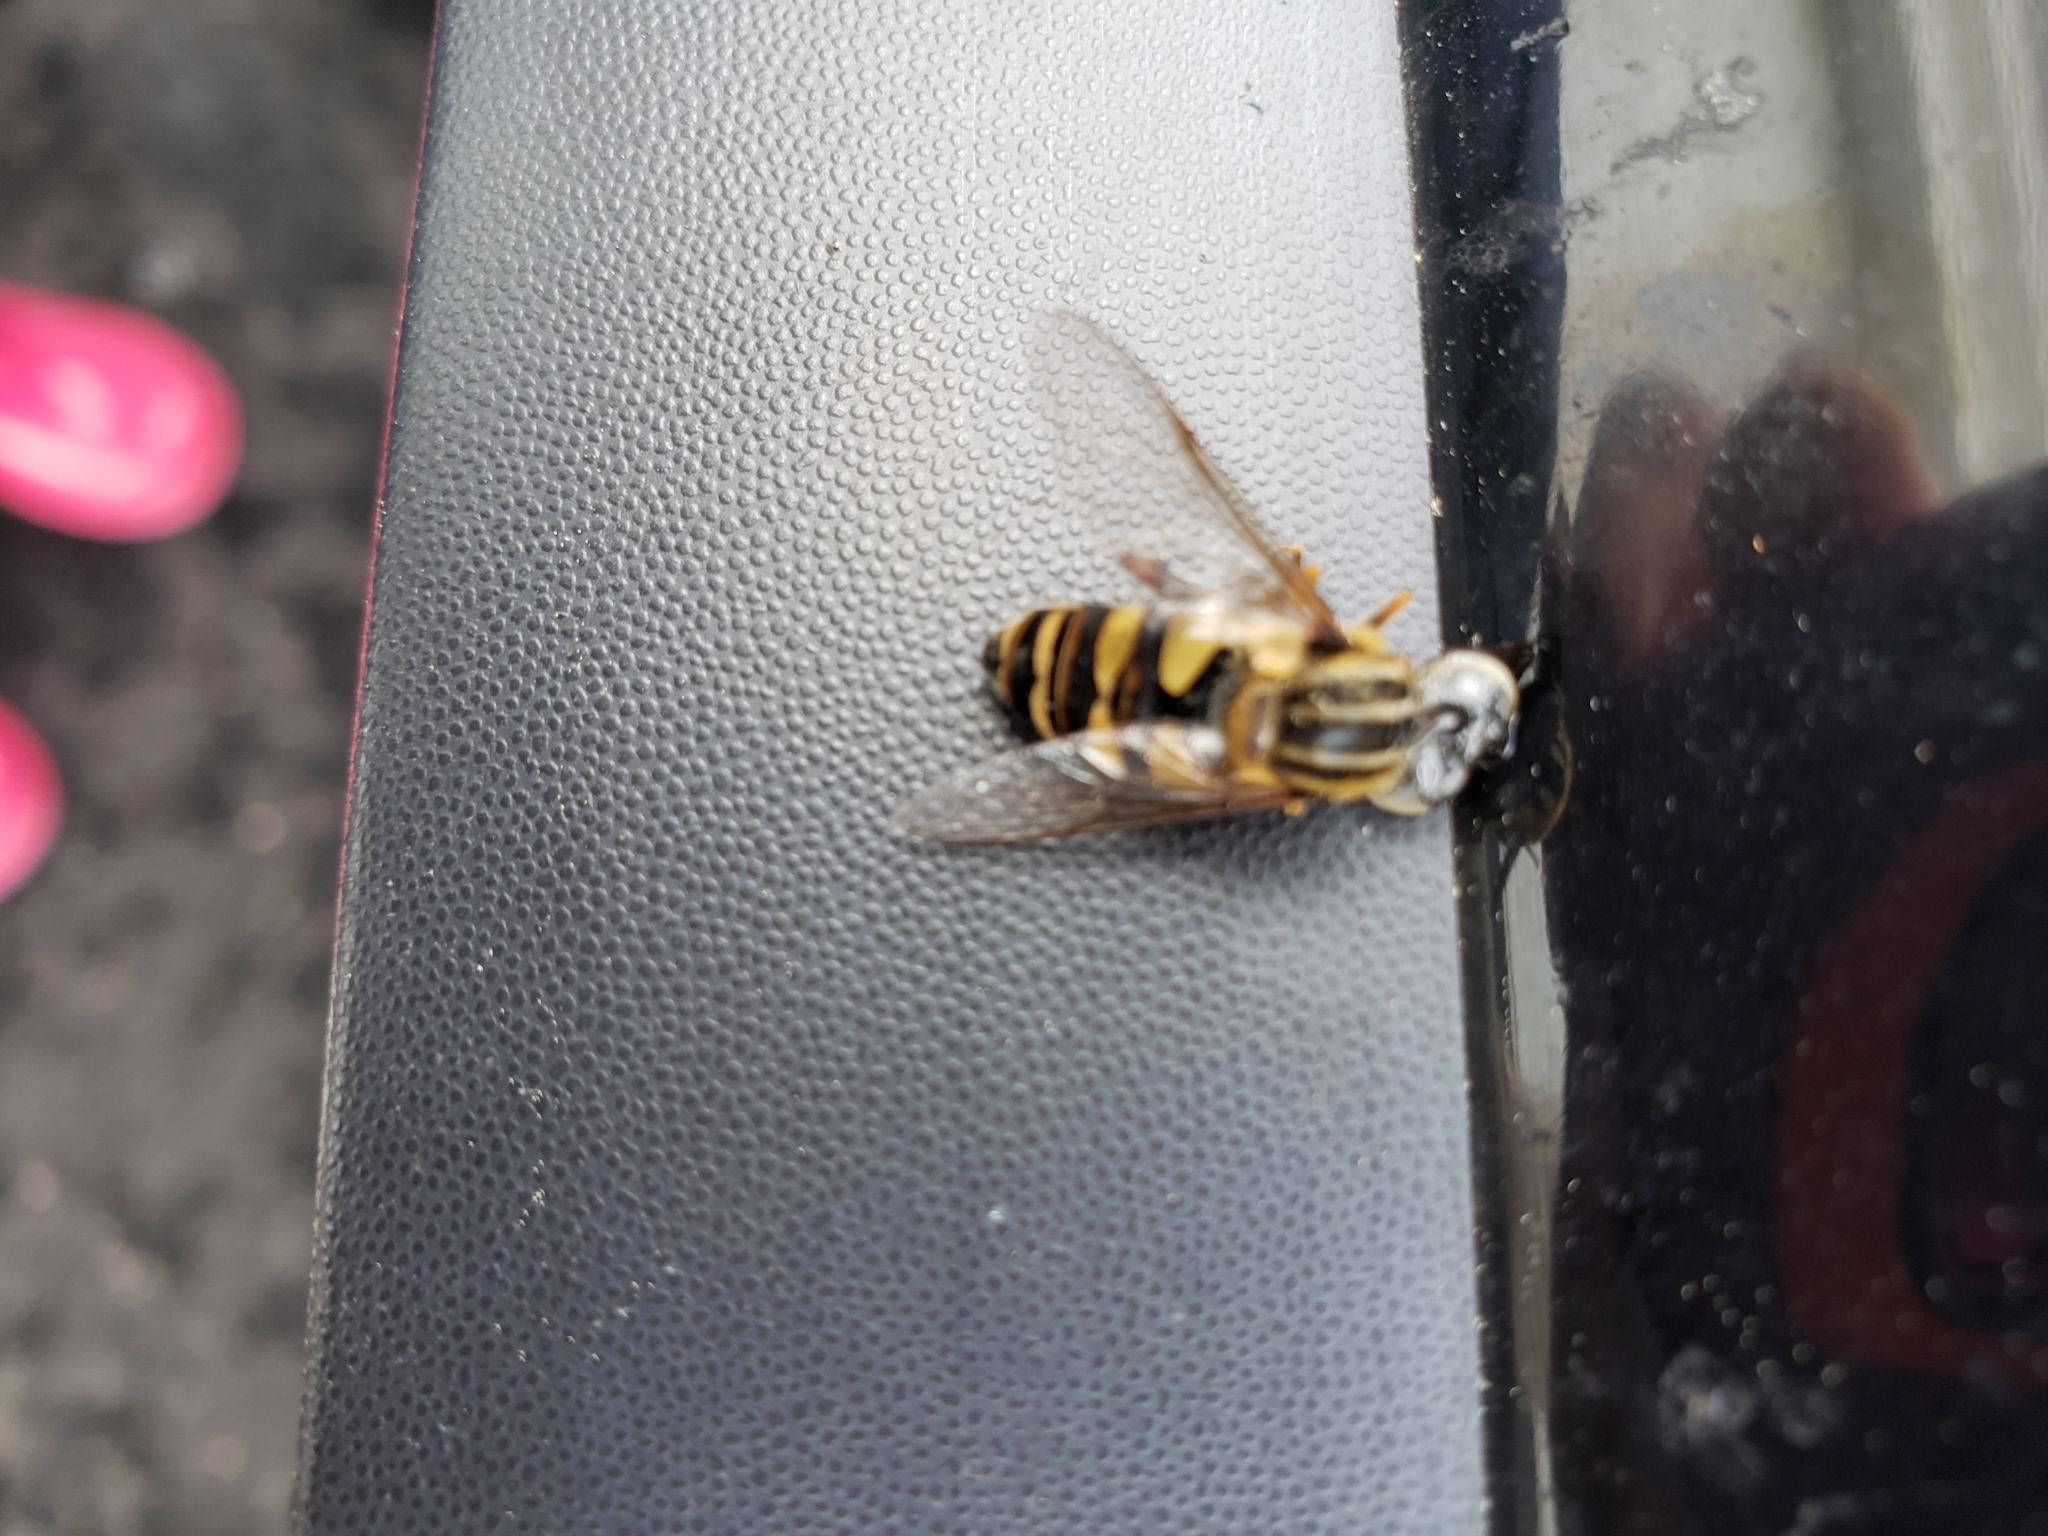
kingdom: Animalia
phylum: Arthropoda
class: Insecta
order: Diptera
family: Syrphidae
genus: Helophilus
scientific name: Helophilus fasciatus
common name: Narrow-headed marsh fly
